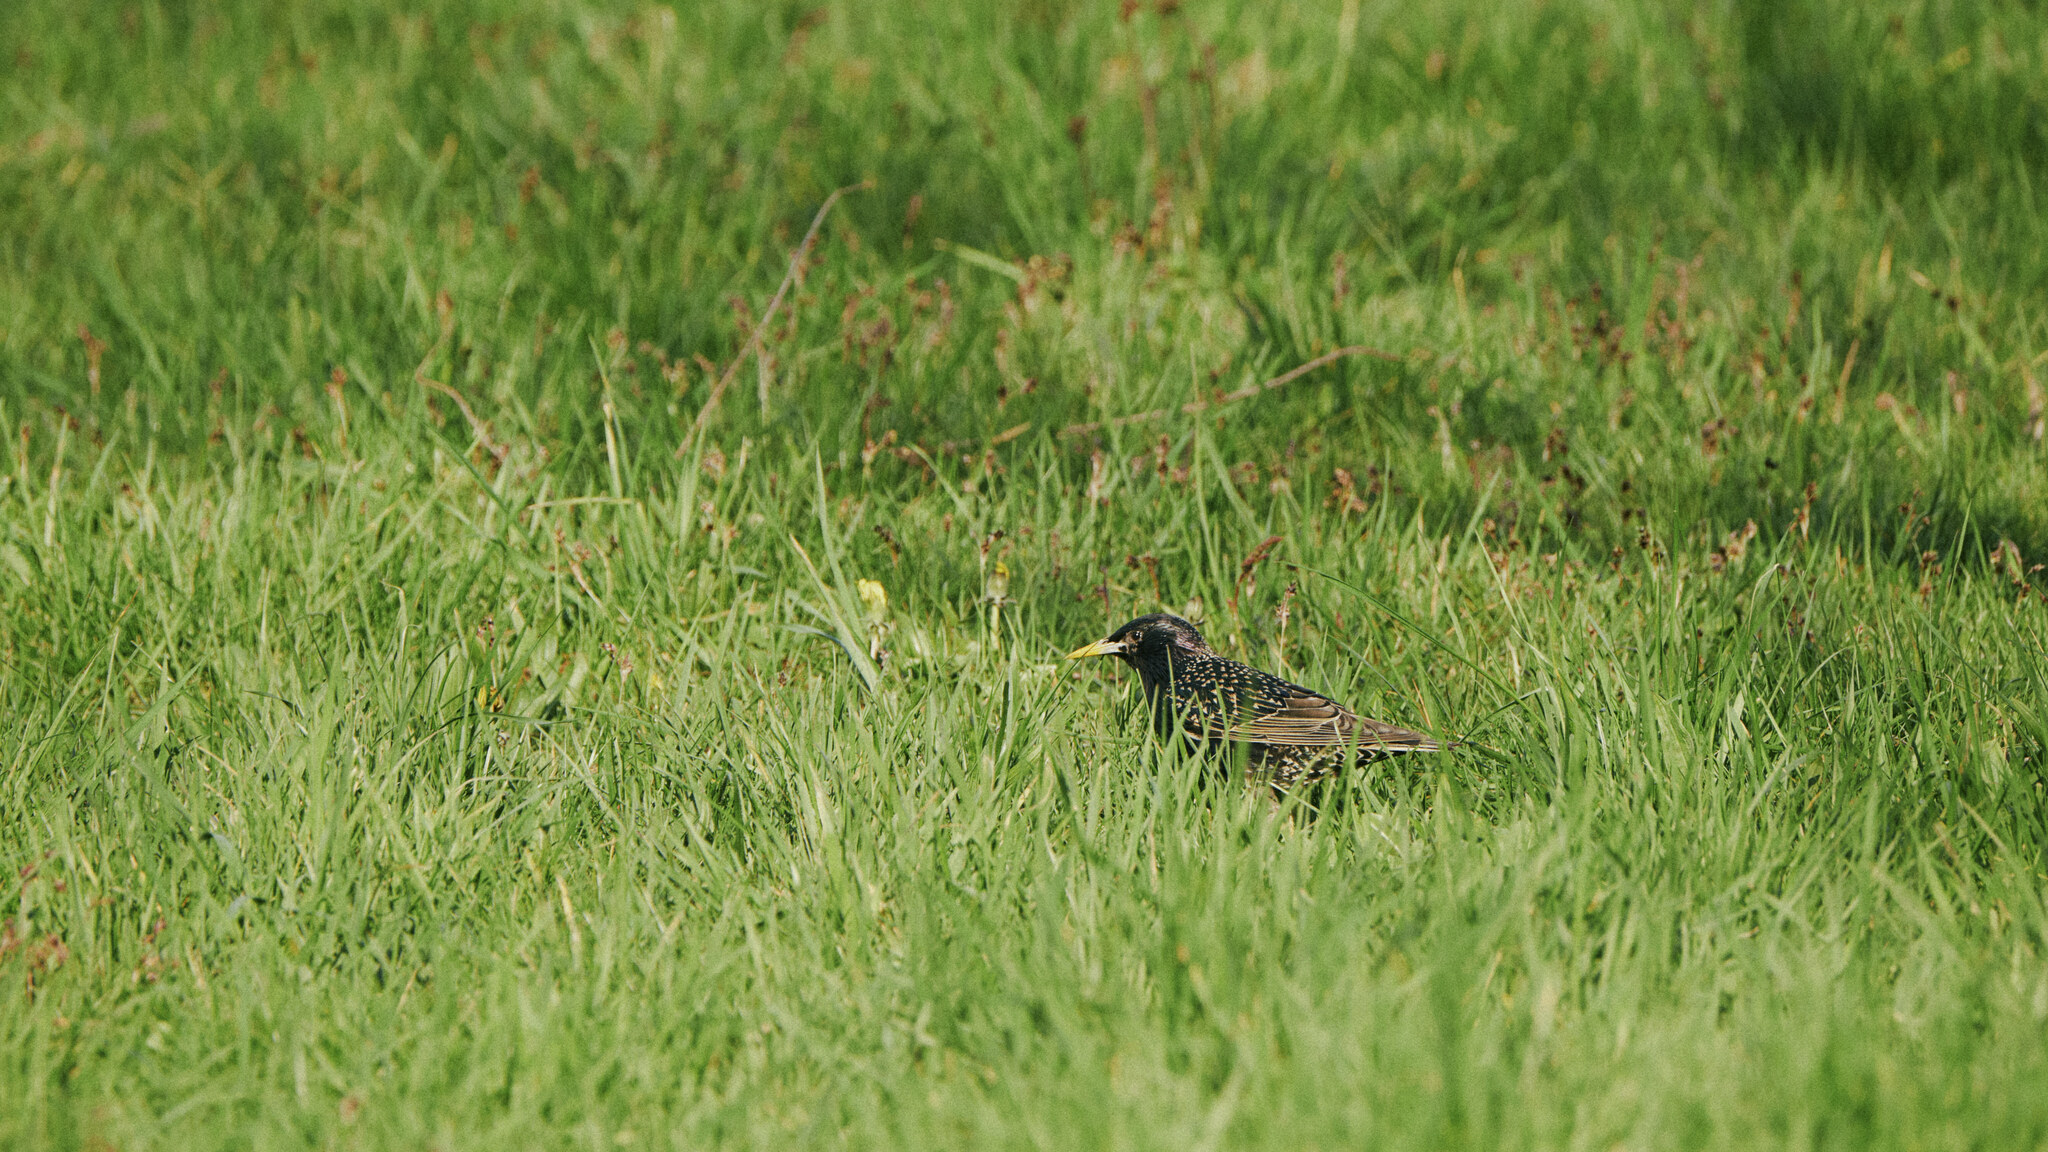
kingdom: Animalia
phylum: Chordata
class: Aves
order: Passeriformes
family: Sturnidae
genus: Sturnus
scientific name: Sturnus vulgaris
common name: Common starling
